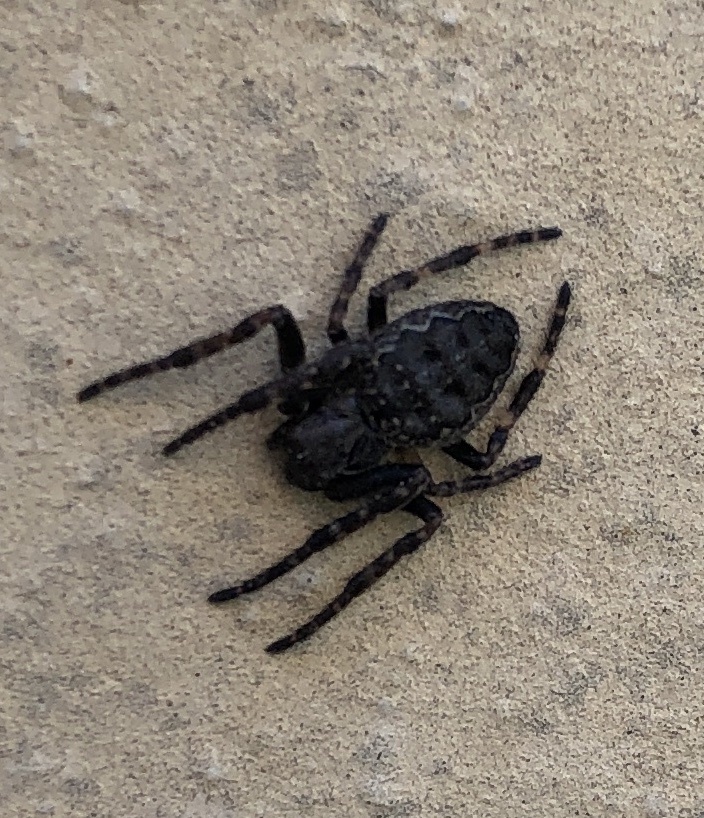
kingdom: Animalia
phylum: Arthropoda
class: Arachnida
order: Araneae
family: Araneidae
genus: Nuctenea
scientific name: Nuctenea umbratica
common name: Toad spider
